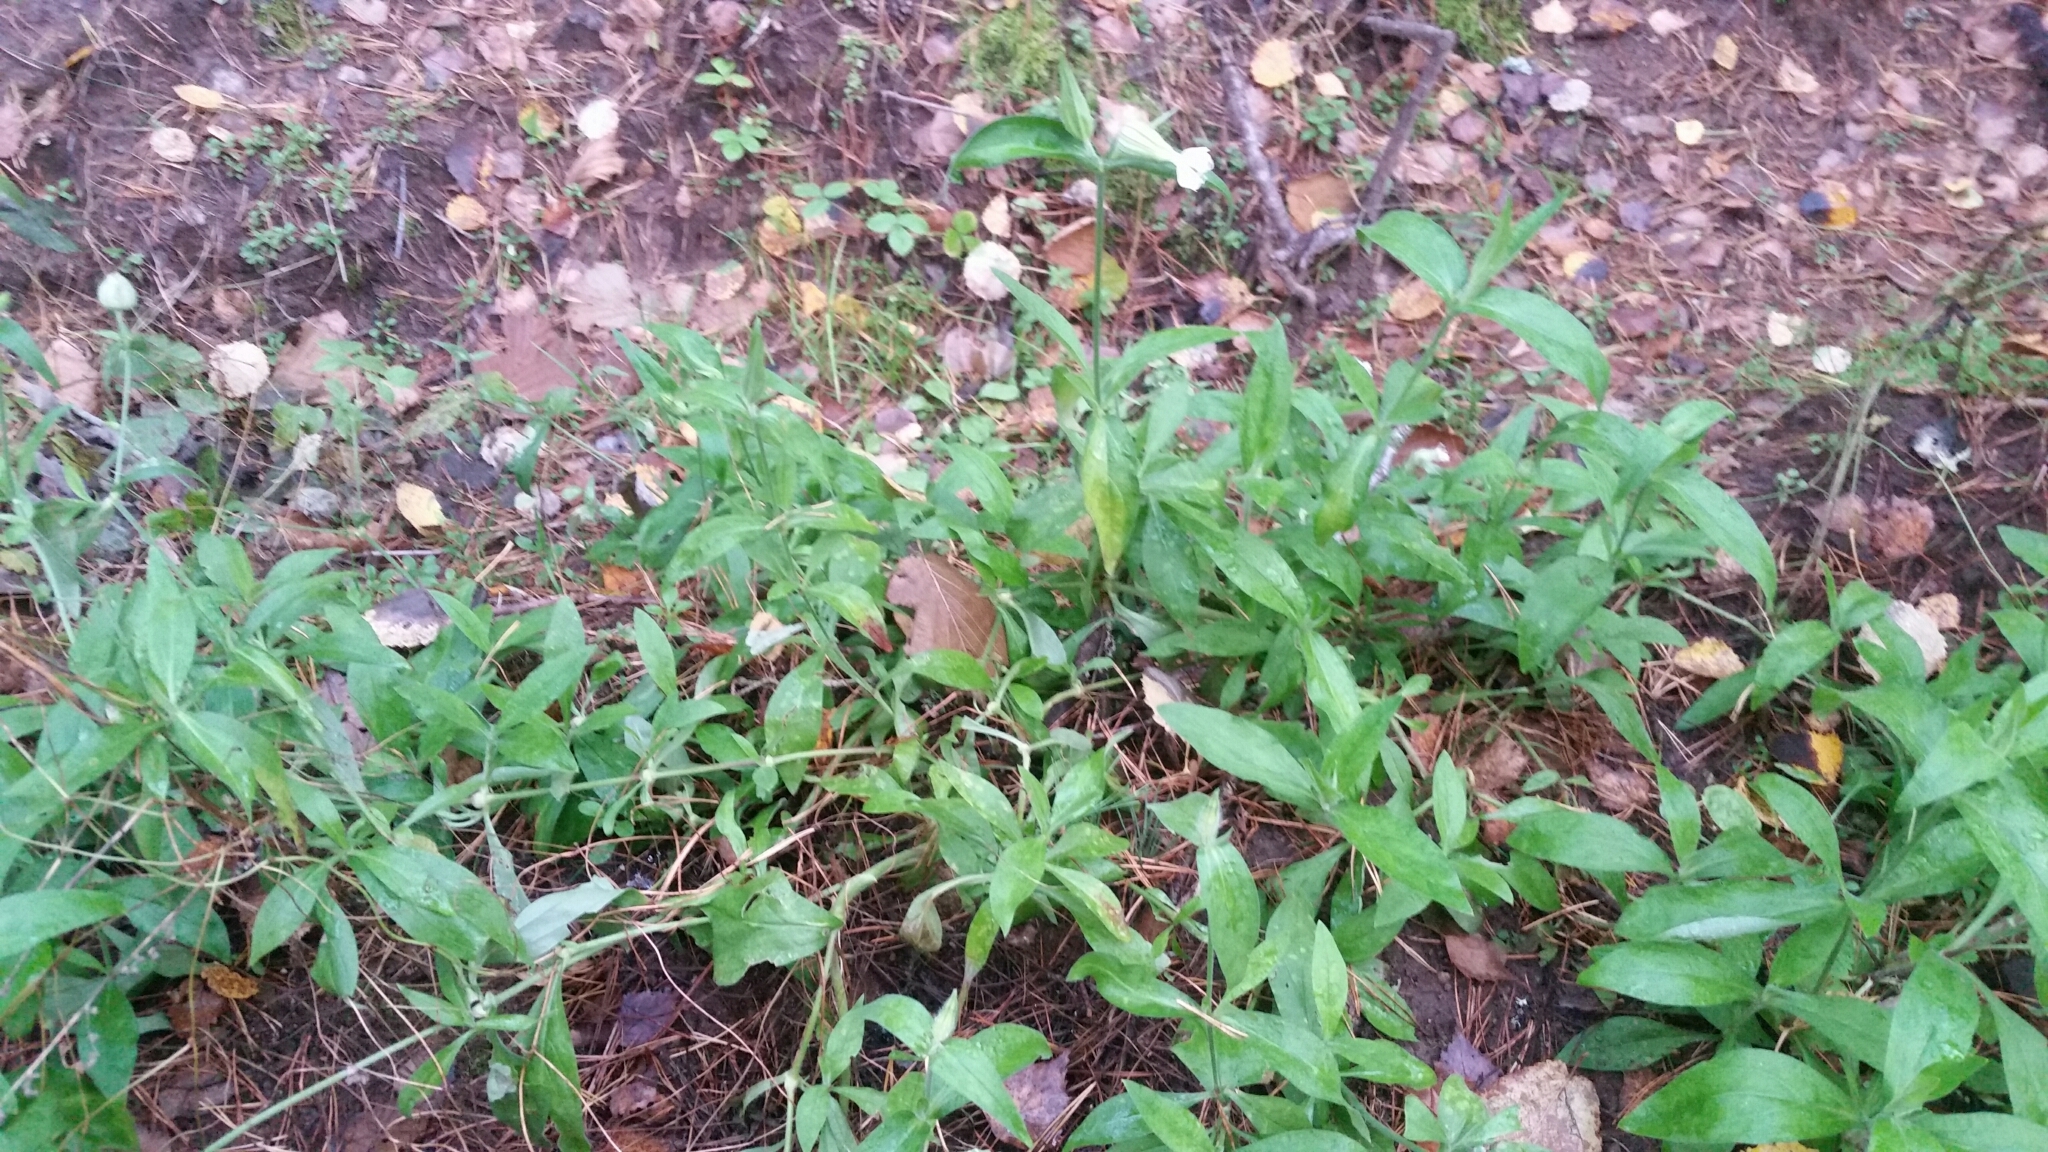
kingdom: Plantae
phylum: Tracheophyta
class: Magnoliopsida
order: Caryophyllales
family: Caryophyllaceae
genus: Silene
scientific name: Silene latifolia
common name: White campion
